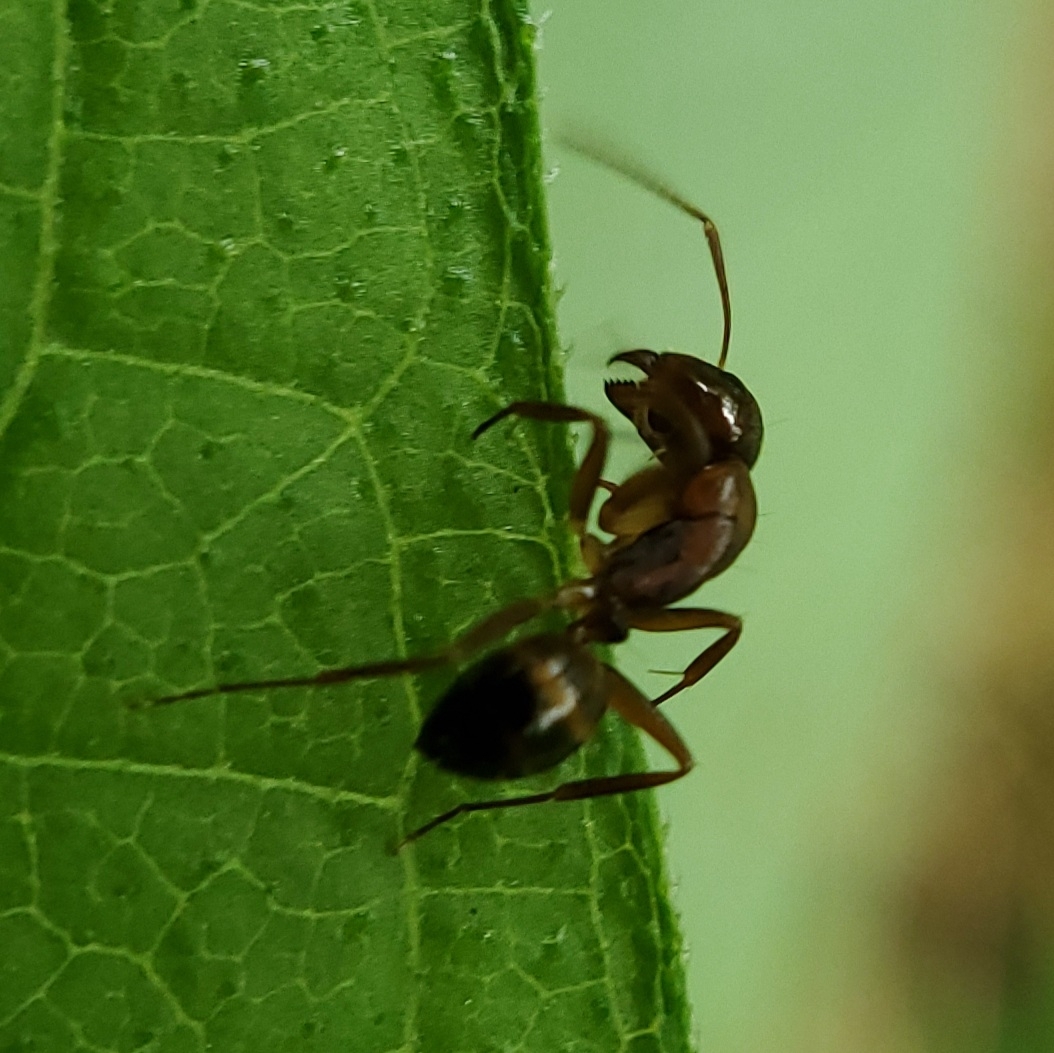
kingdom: Animalia
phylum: Arthropoda
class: Insecta
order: Hymenoptera
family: Formicidae
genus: Camponotus
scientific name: Camponotus subbarbatus
